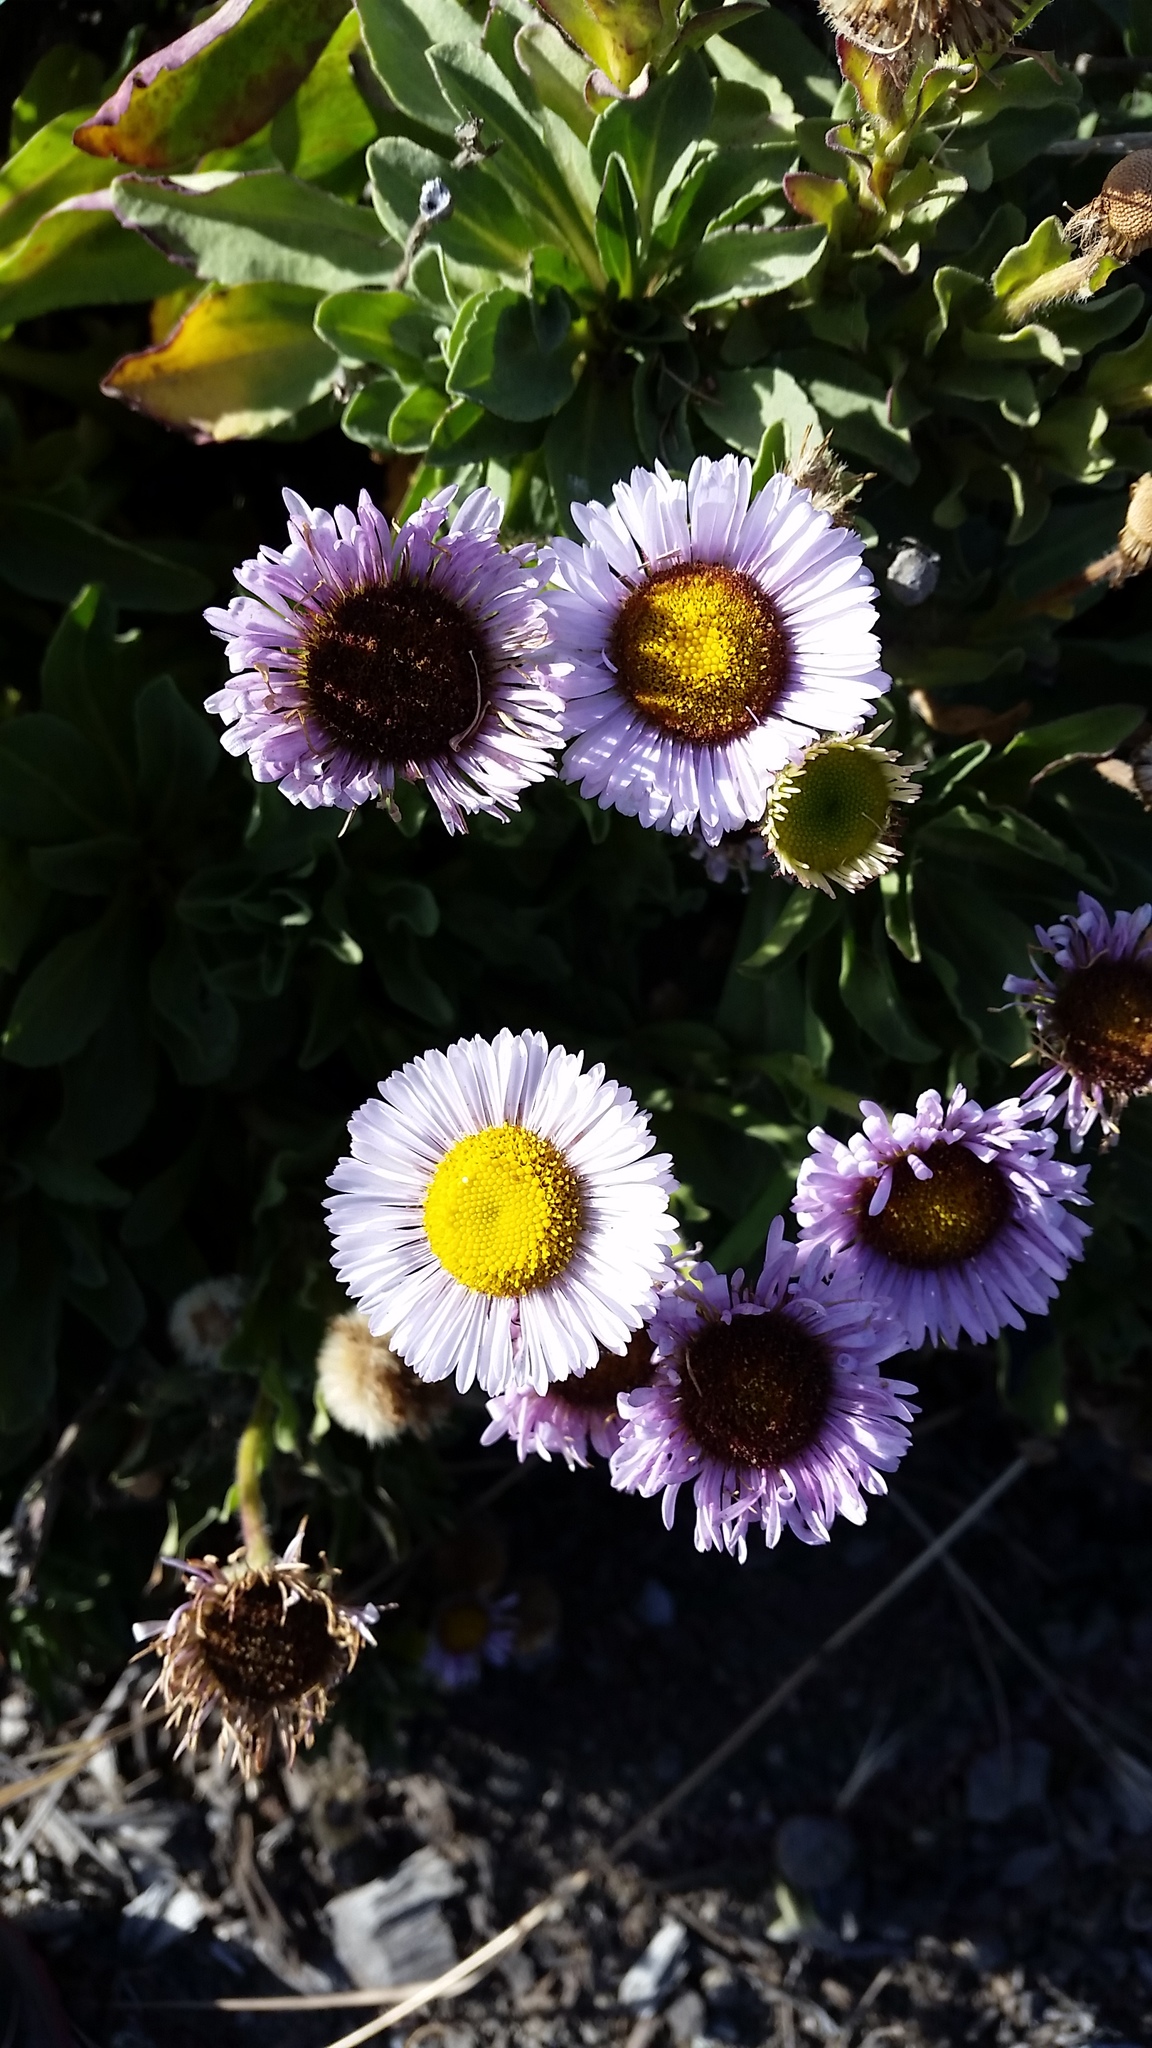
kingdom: Plantae
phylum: Tracheophyta
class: Magnoliopsida
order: Asterales
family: Asteraceae
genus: Erigeron
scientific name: Erigeron glaucus
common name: Seaside daisy
